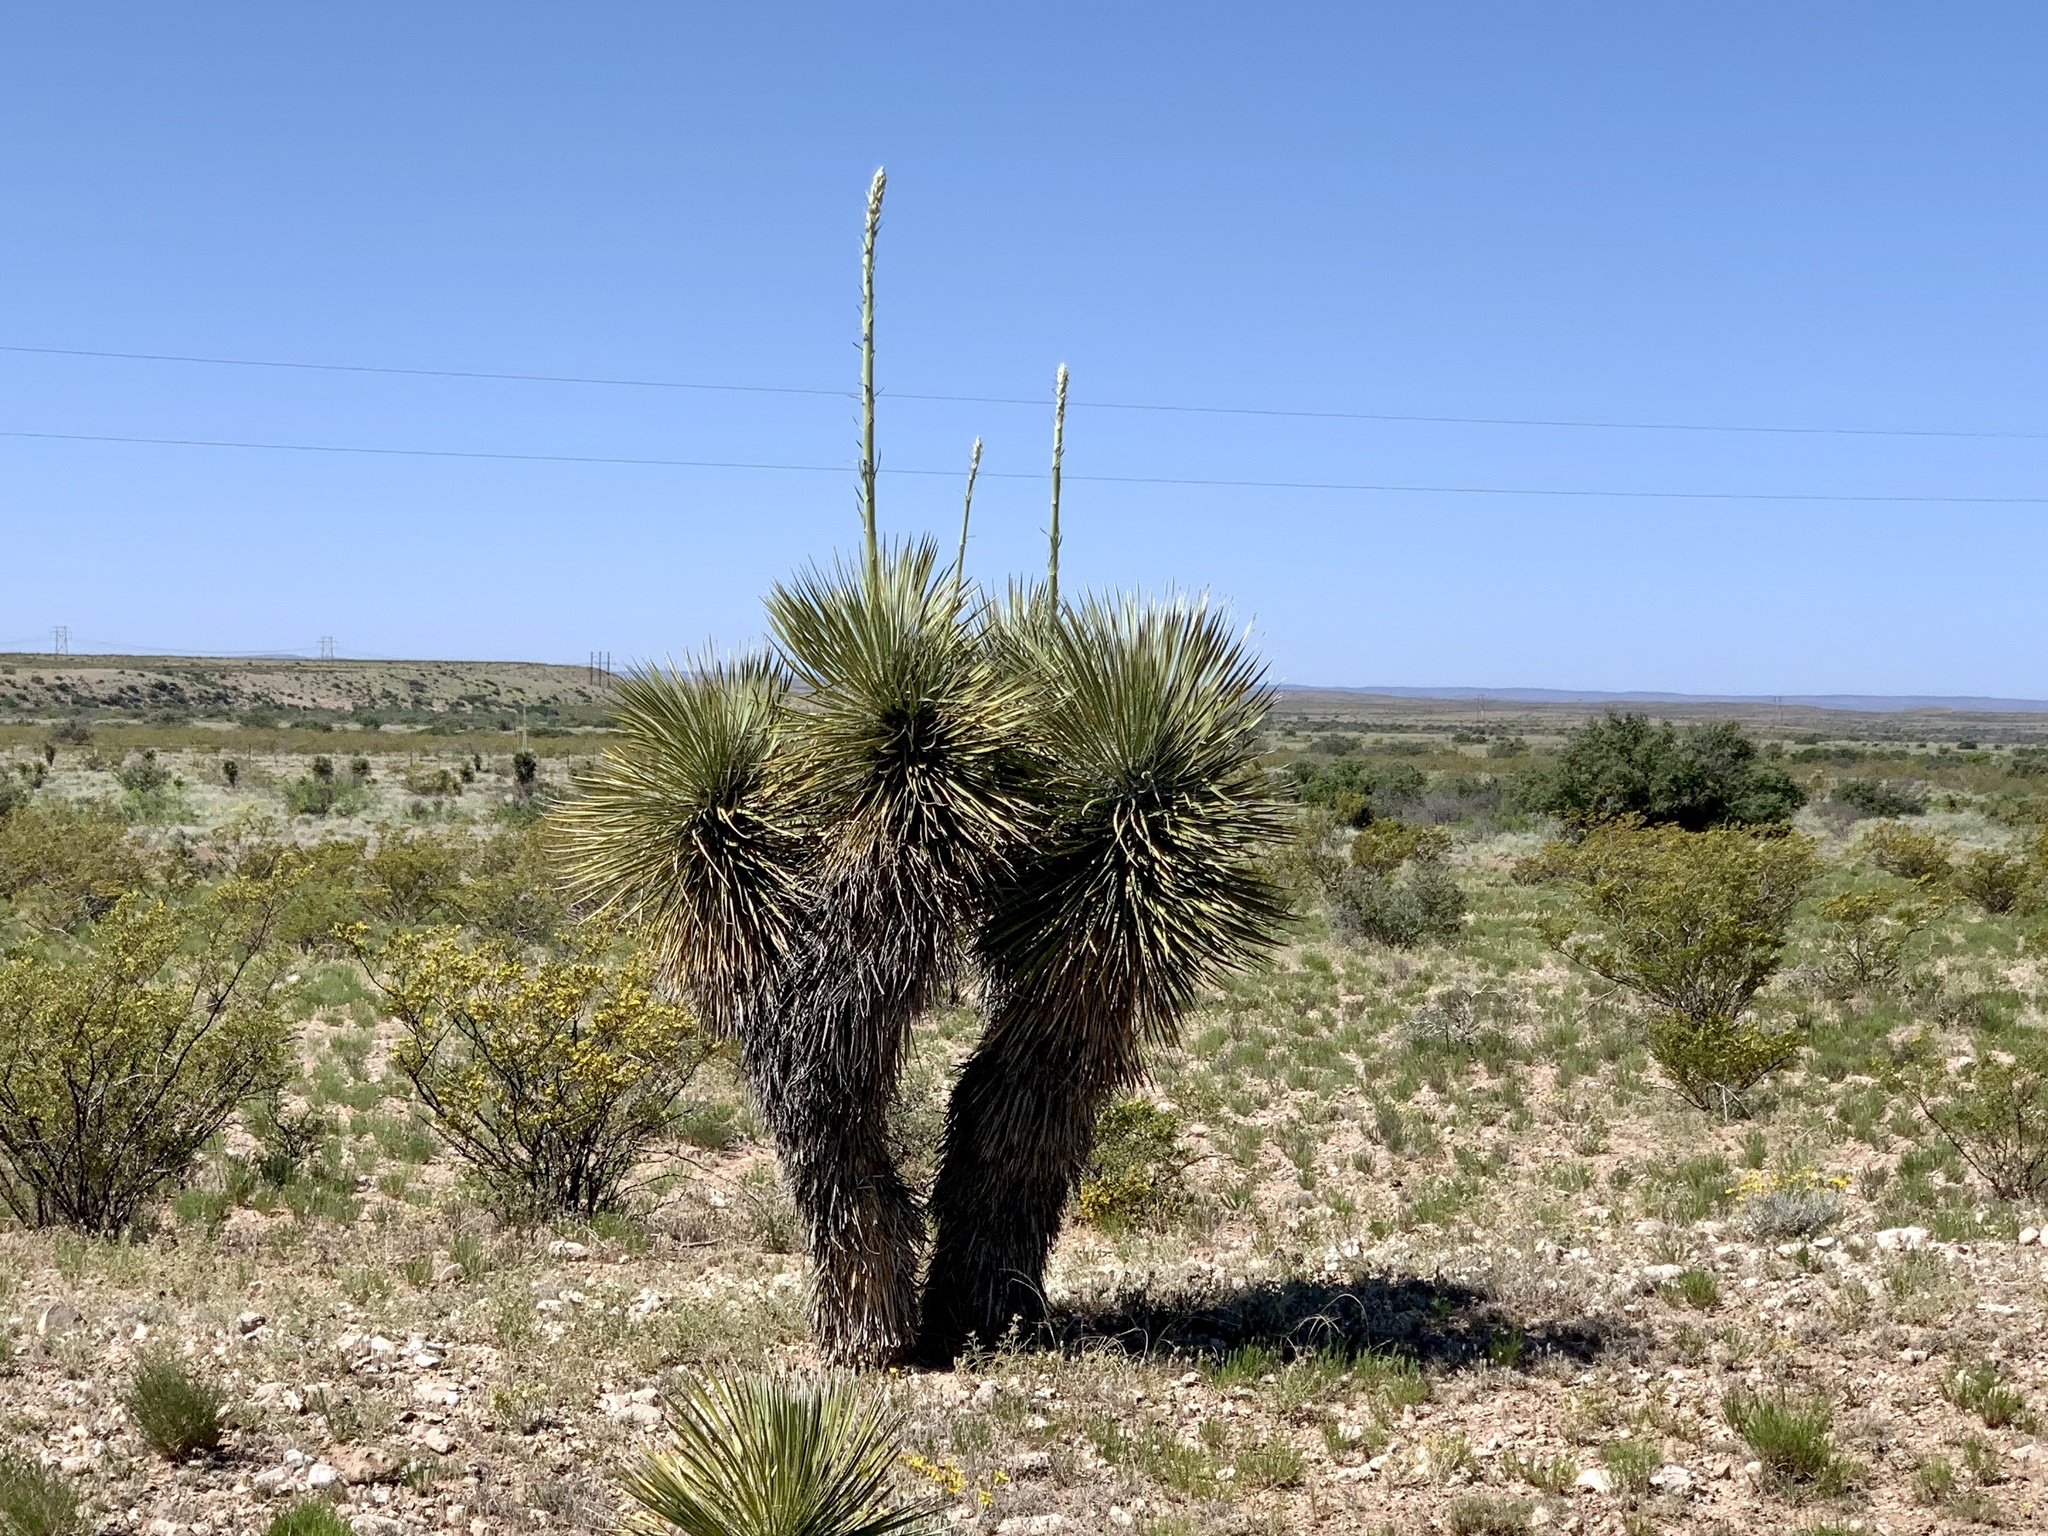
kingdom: Plantae
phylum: Tracheophyta
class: Liliopsida
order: Asparagales
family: Asparagaceae
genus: Yucca
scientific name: Yucca elata
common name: Palmella
